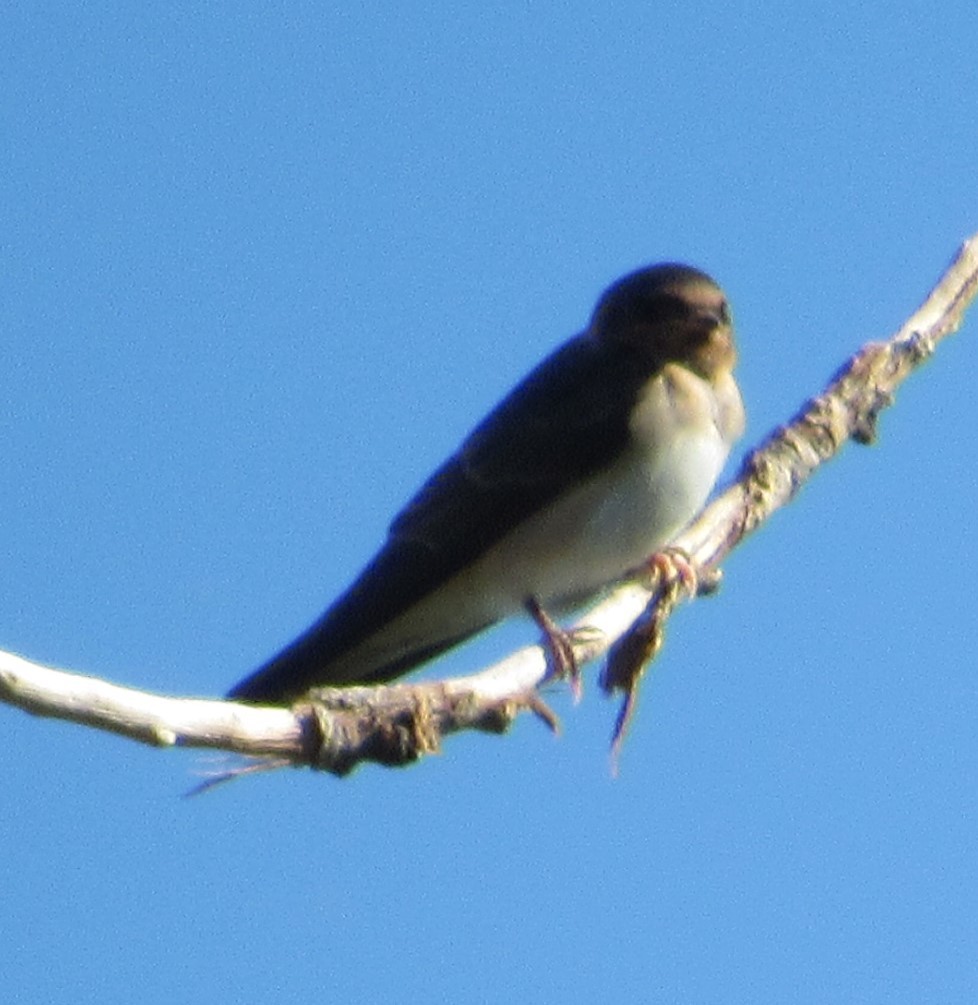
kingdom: Animalia
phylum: Chordata
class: Aves
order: Passeriformes
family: Hirundinidae
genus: Petrochelidon
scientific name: Petrochelidon pyrrhonota
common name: American cliff swallow
